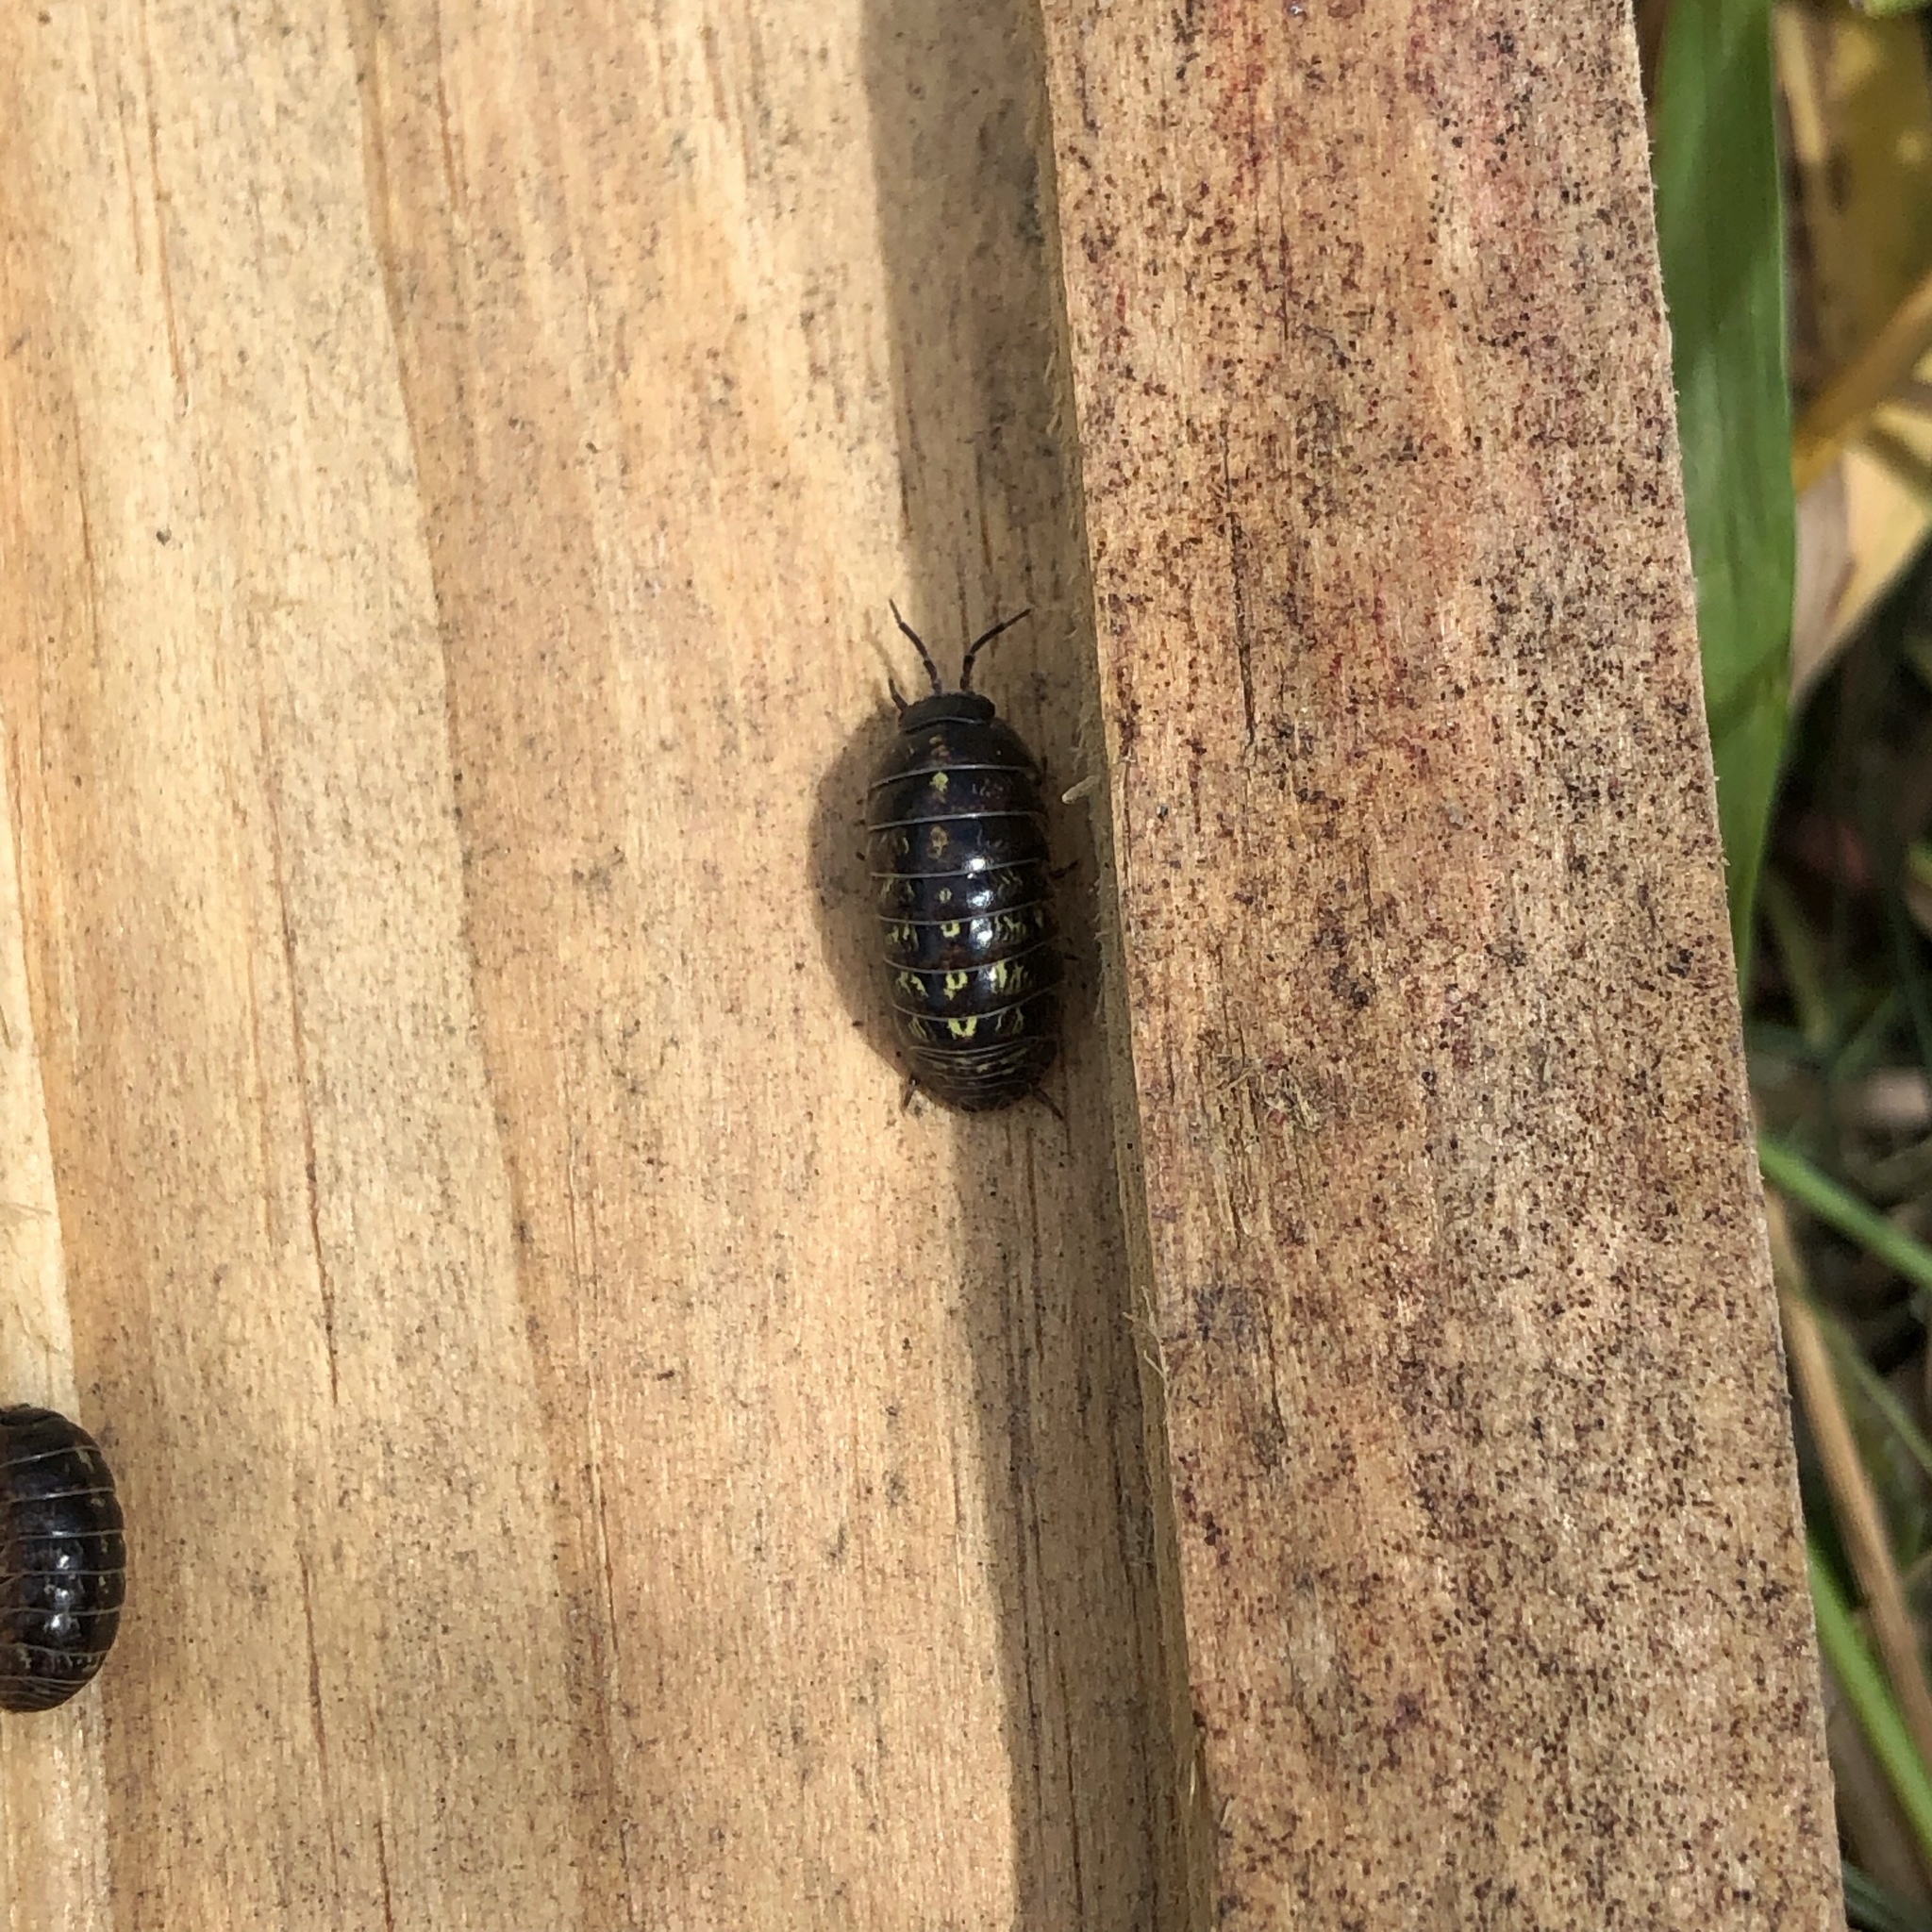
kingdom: Animalia
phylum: Arthropoda
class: Malacostraca
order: Isopoda
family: Armadillidiidae
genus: Armadillidium
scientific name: Armadillidium vulgare
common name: Common pill woodlouse
